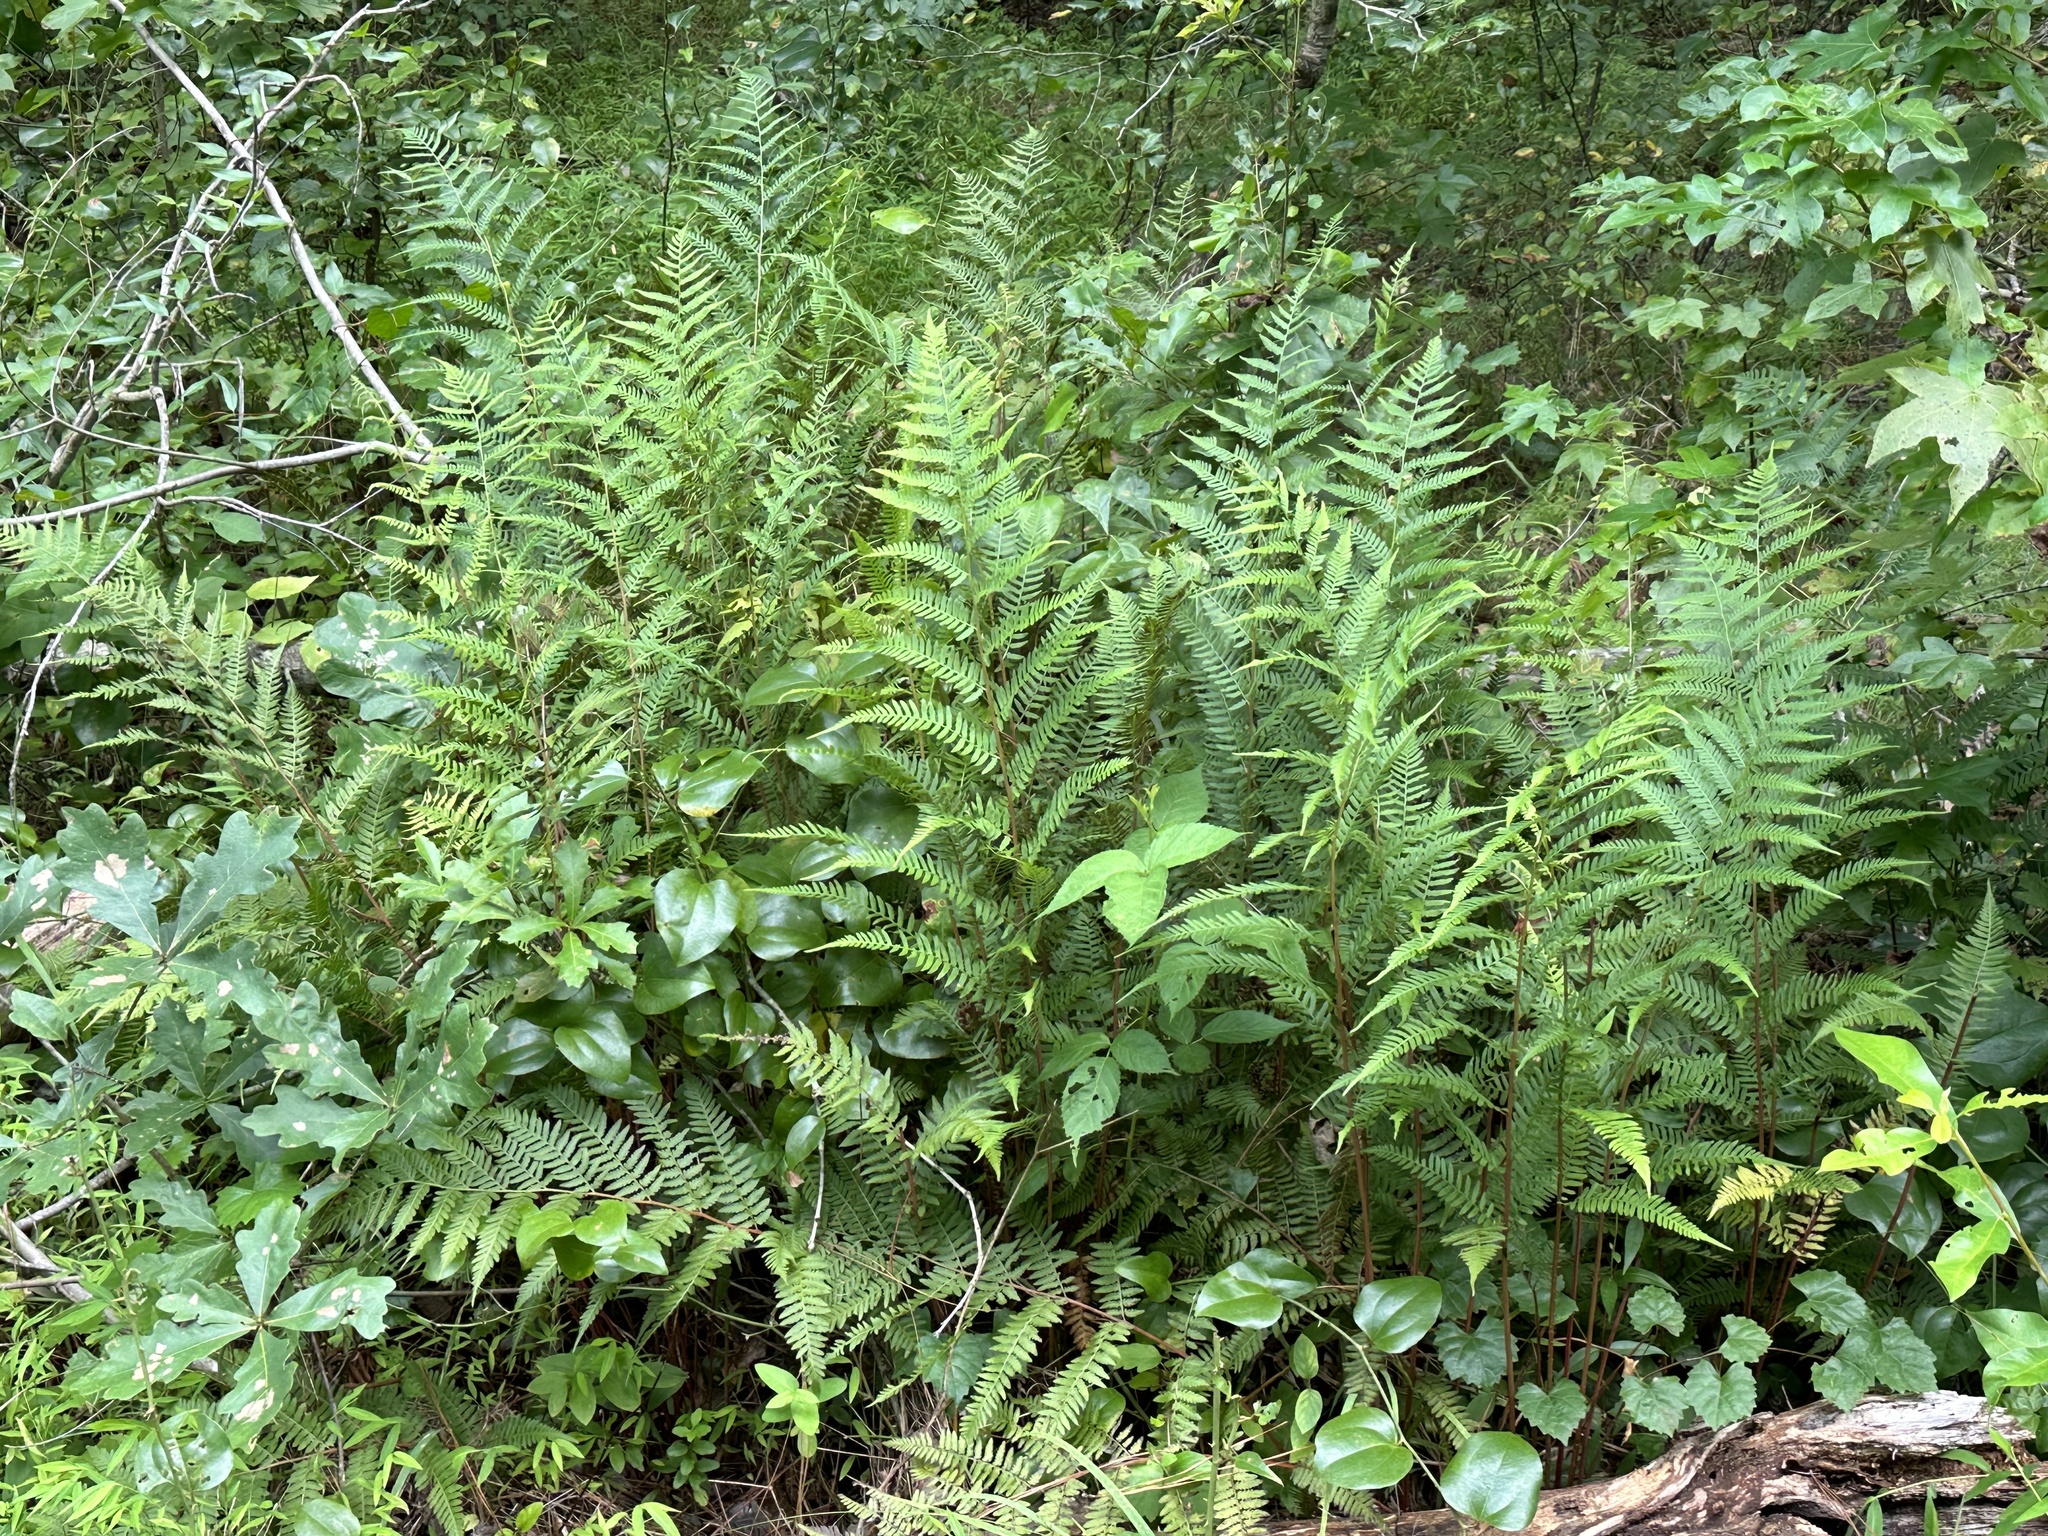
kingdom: Plantae
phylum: Tracheophyta
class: Polypodiopsida
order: Polypodiales
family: Athyriaceae
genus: Athyrium
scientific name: Athyrium asplenioides
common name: Southern lady fern
